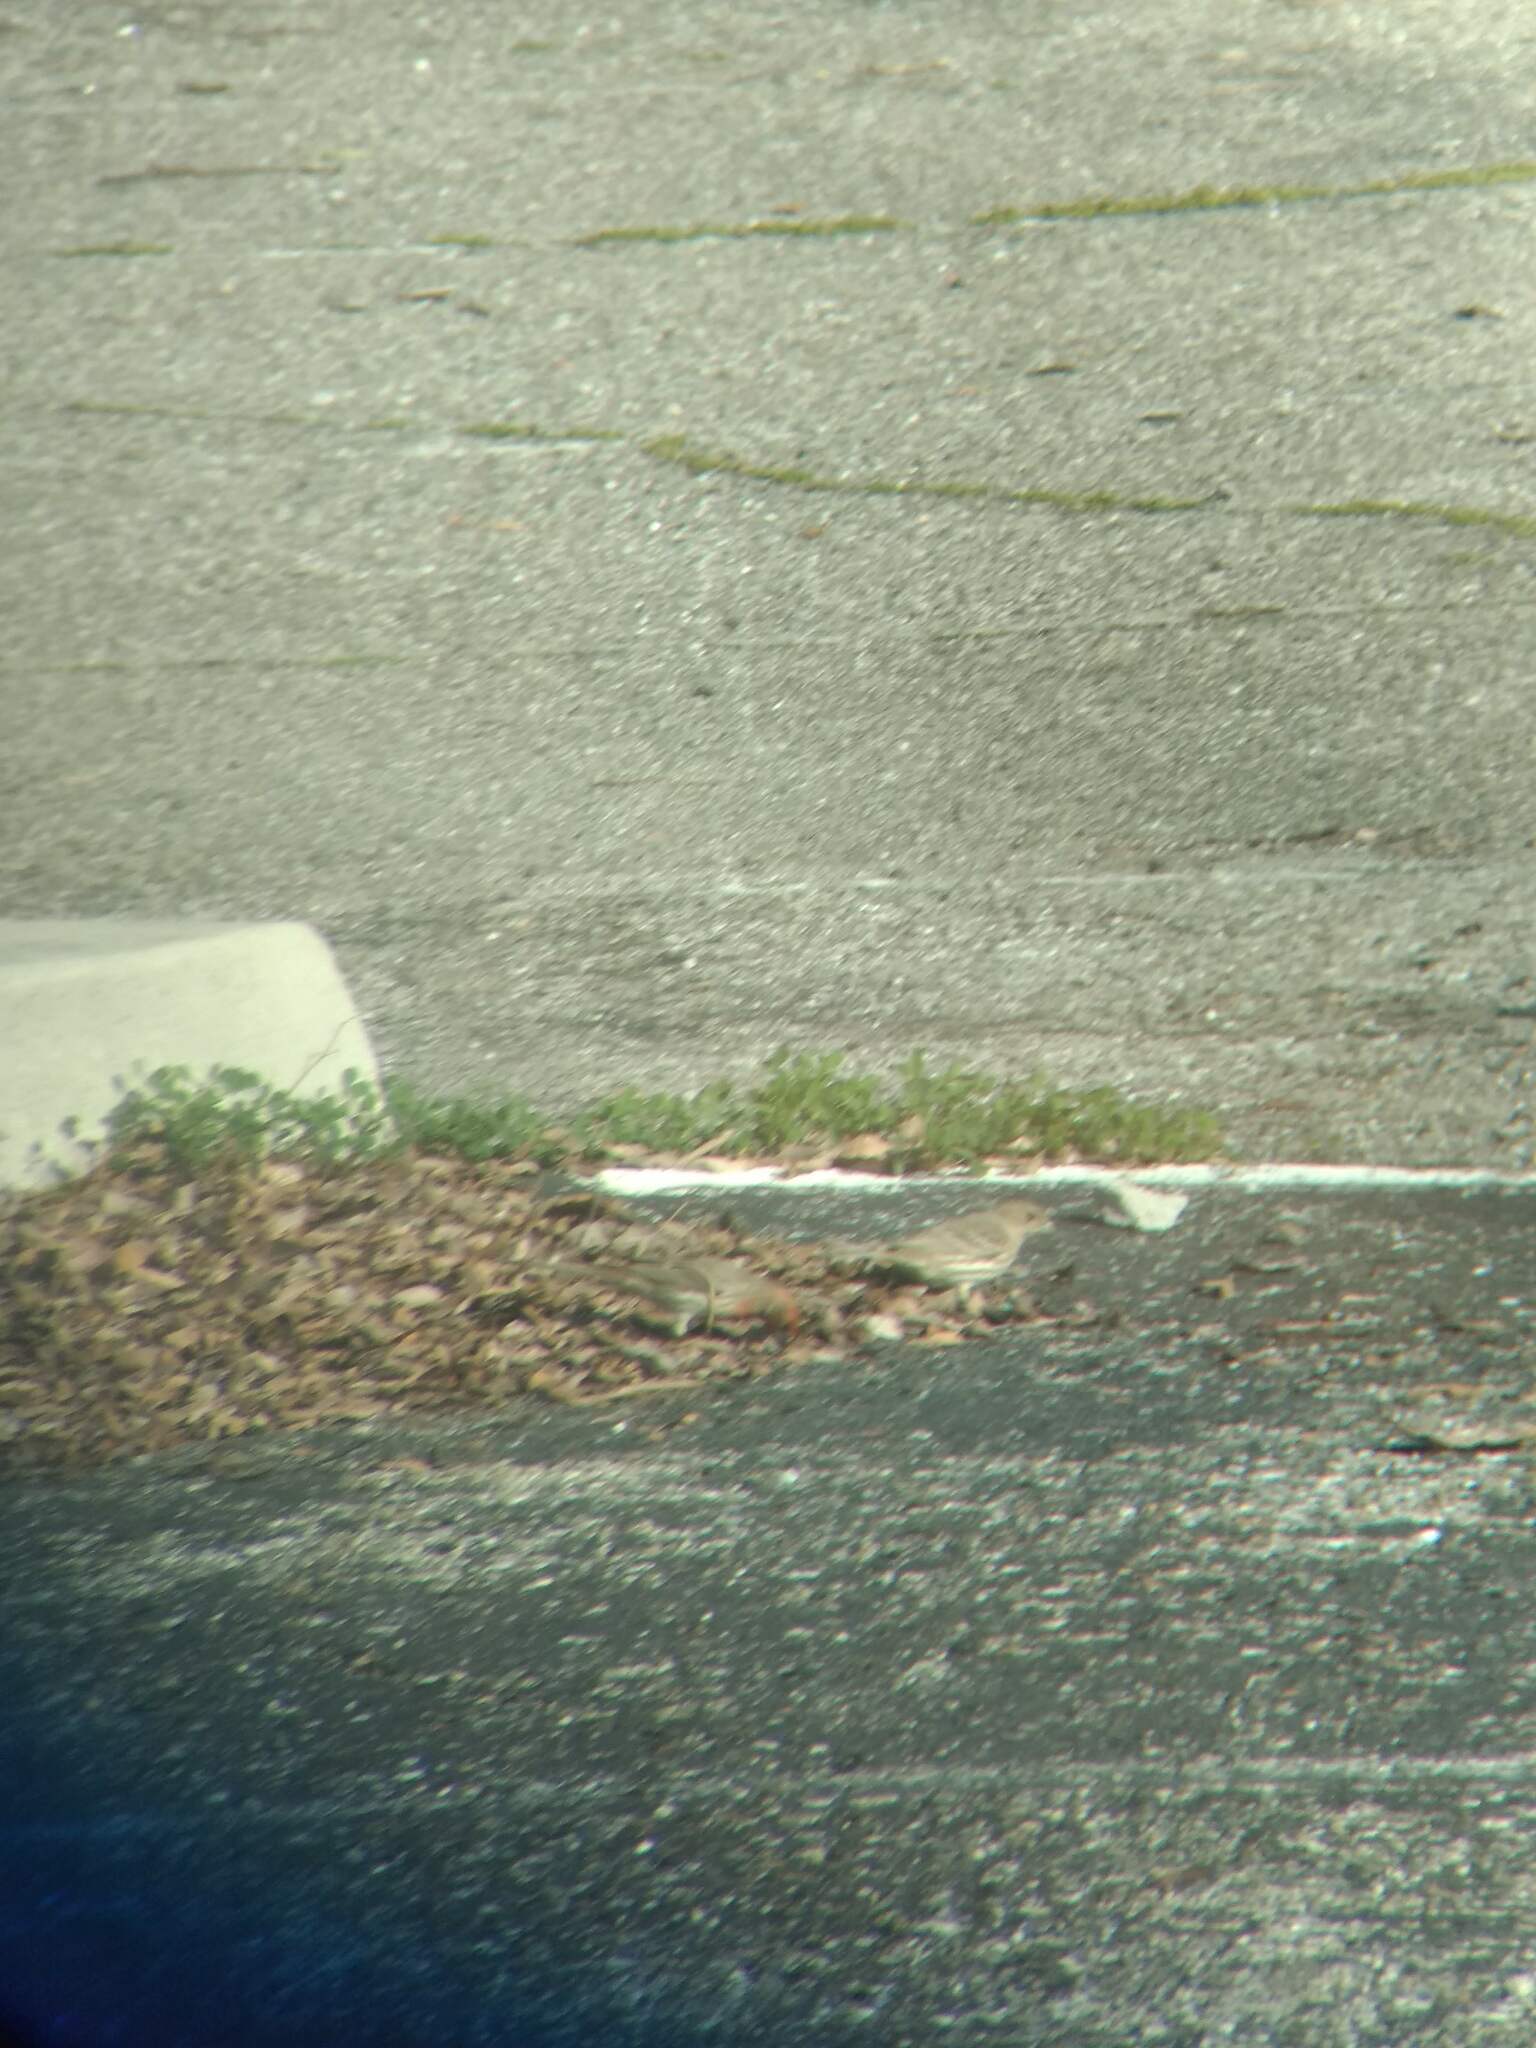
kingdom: Animalia
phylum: Chordata
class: Aves
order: Passeriformes
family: Fringillidae
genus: Haemorhous
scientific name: Haemorhous mexicanus
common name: House finch
